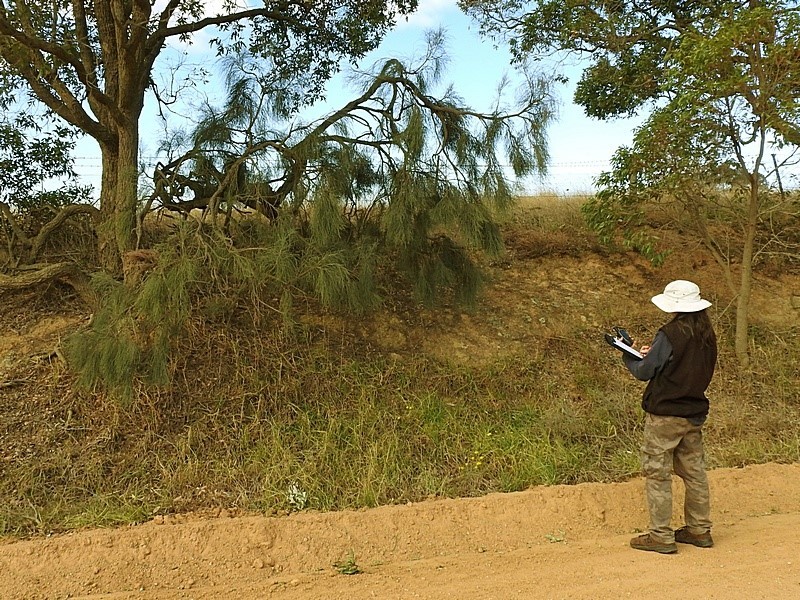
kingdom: Plantae
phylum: Tracheophyta
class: Magnoliopsida
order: Fabales
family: Fabaceae
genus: Jacksonia
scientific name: Jacksonia scoparia
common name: Dogwood
